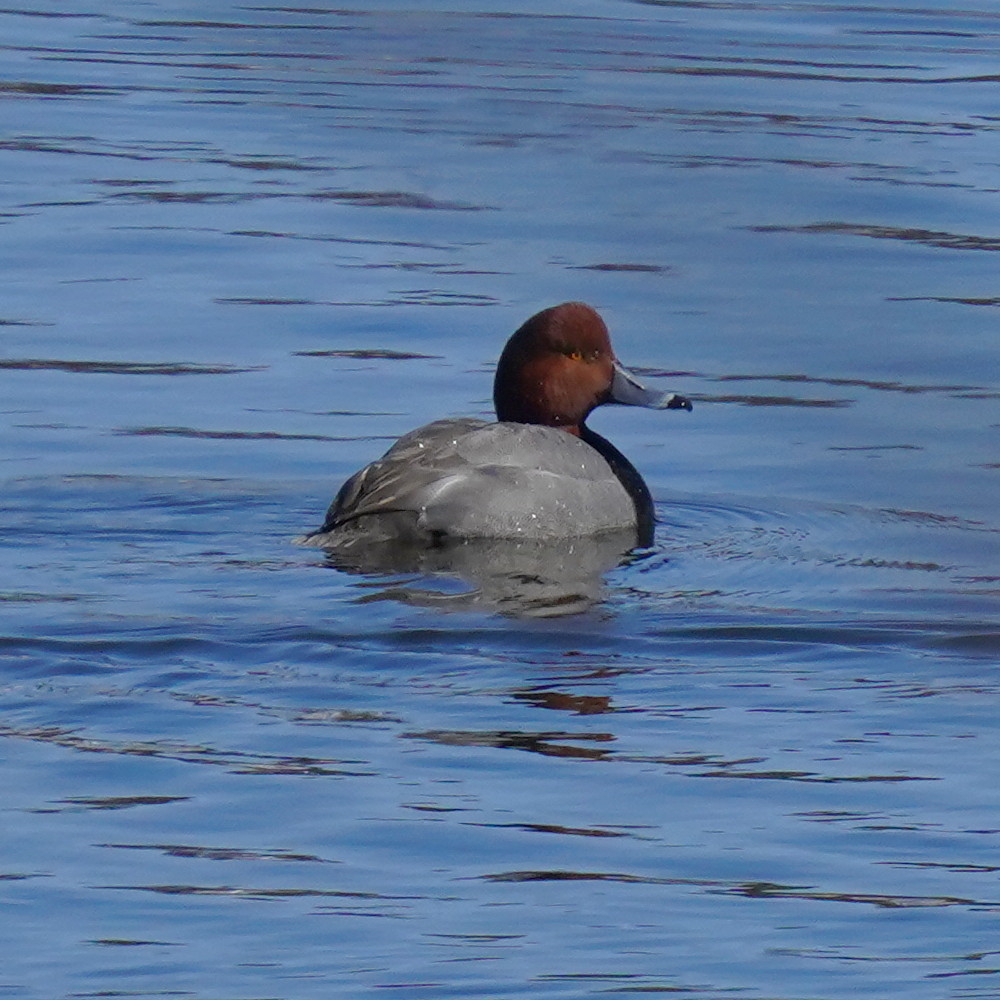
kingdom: Animalia
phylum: Chordata
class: Aves
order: Anseriformes
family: Anatidae
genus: Aythya
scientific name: Aythya americana
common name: Redhead
